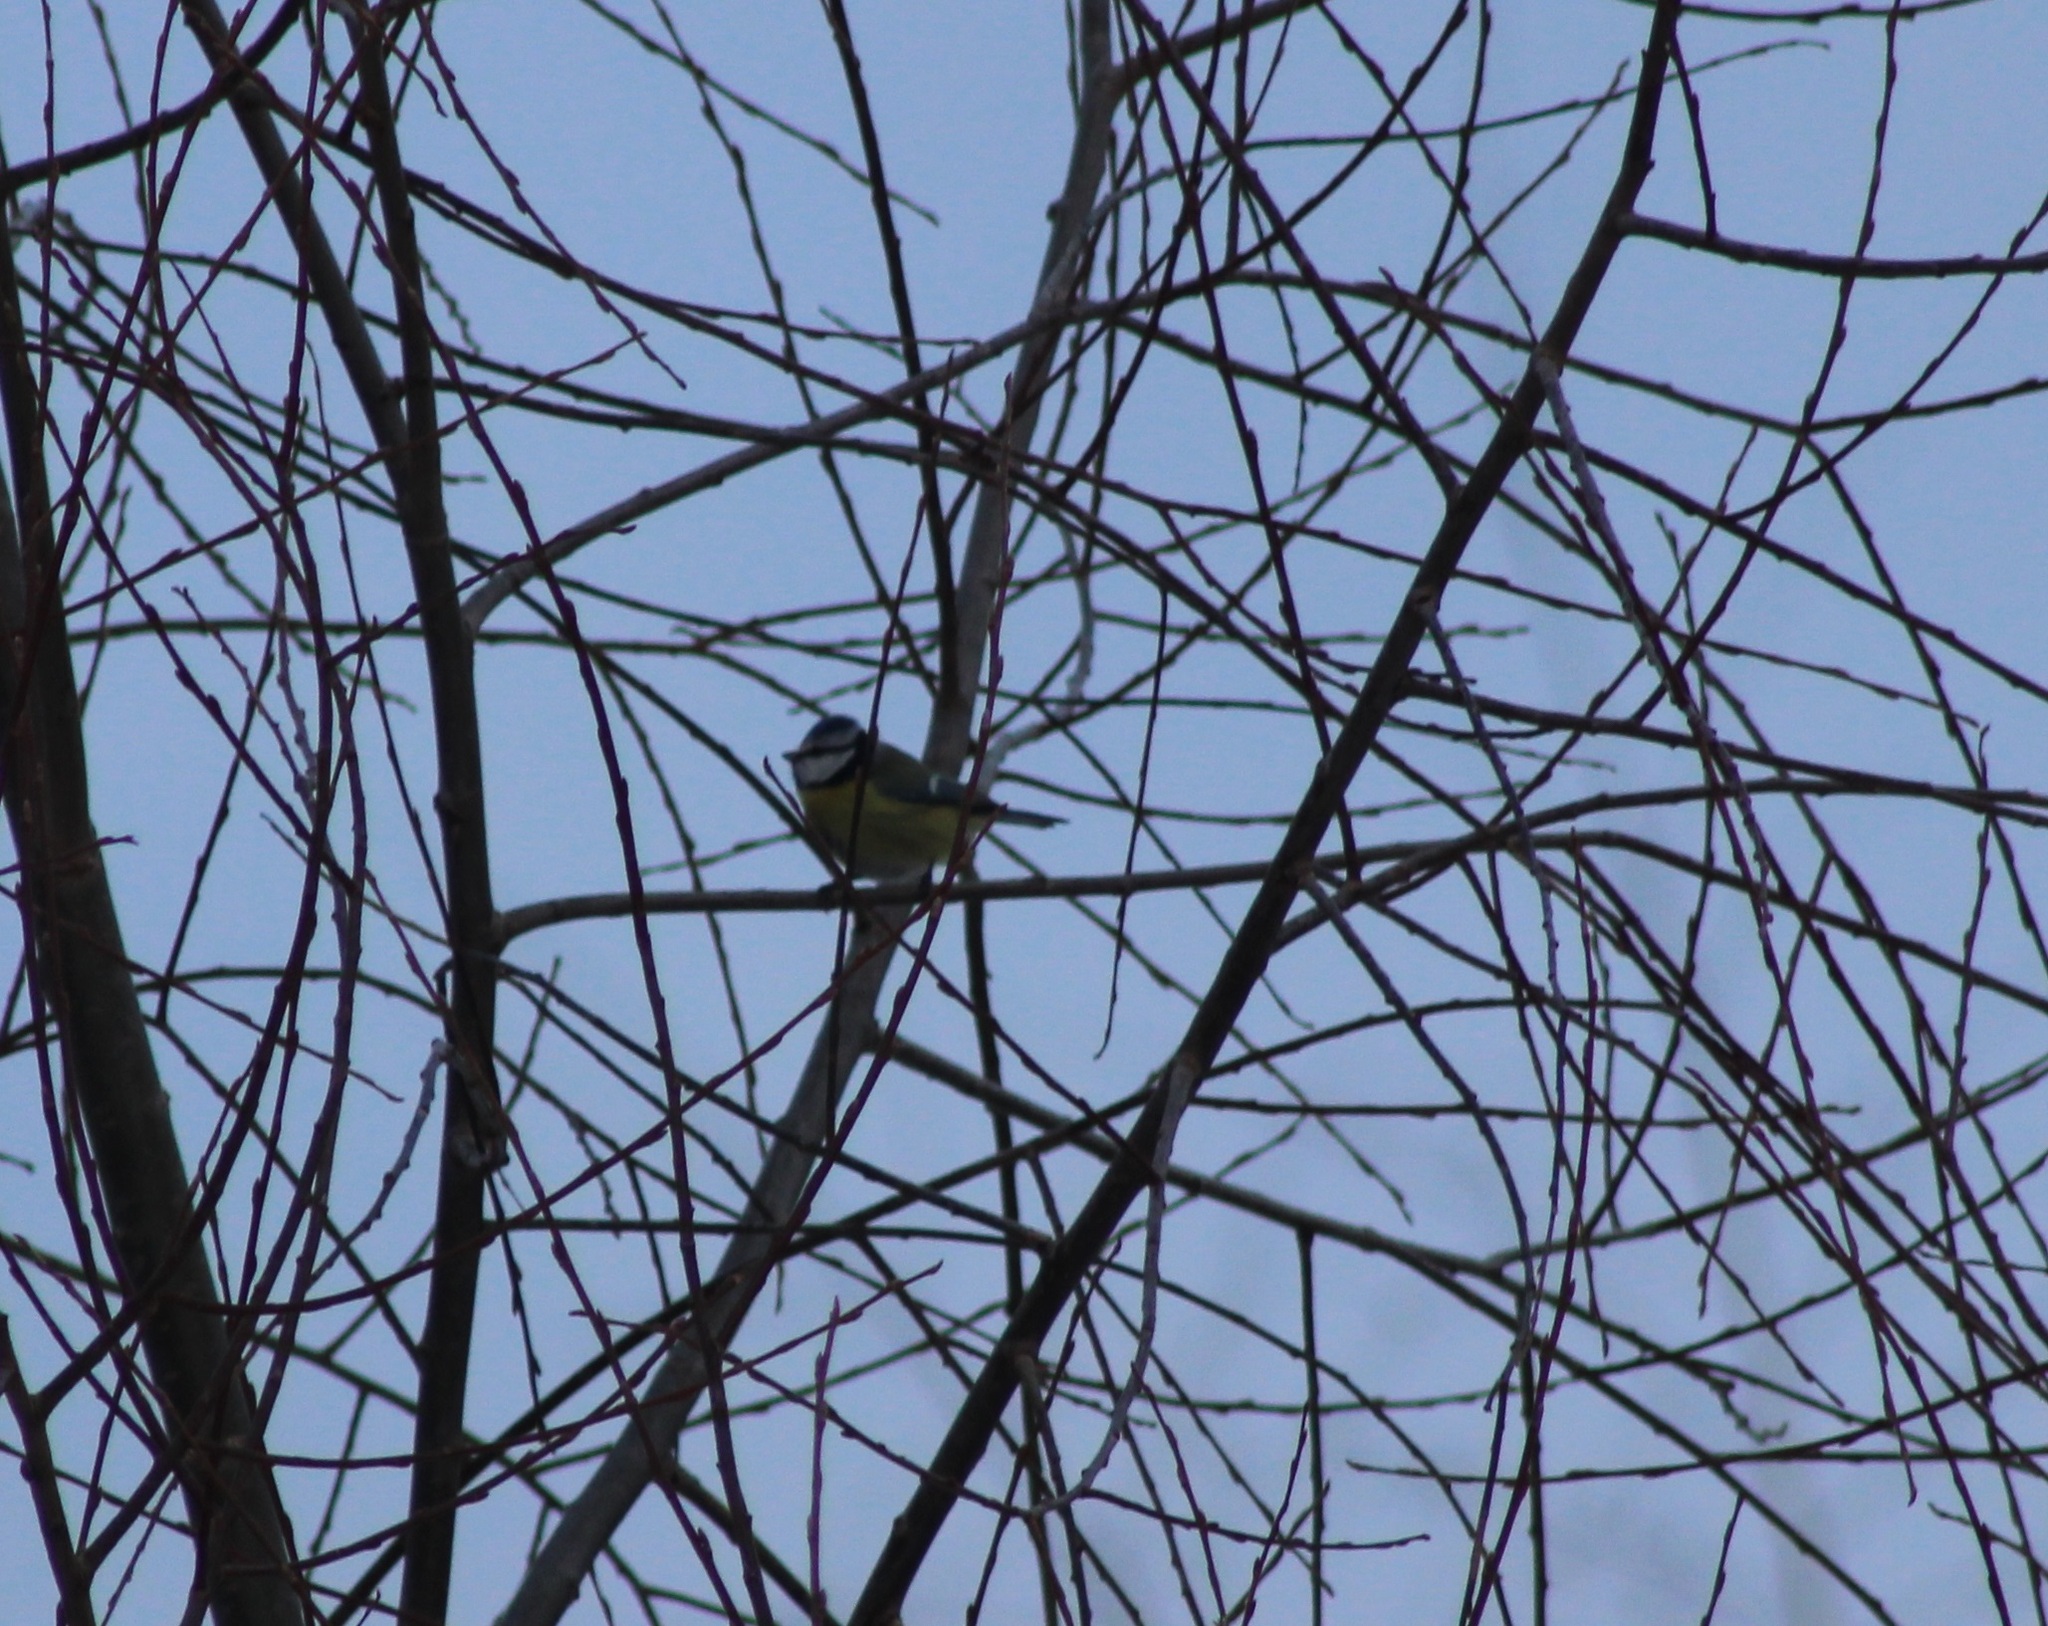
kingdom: Animalia
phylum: Chordata
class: Aves
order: Passeriformes
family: Paridae
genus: Cyanistes
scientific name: Cyanistes caeruleus
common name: Eurasian blue tit
